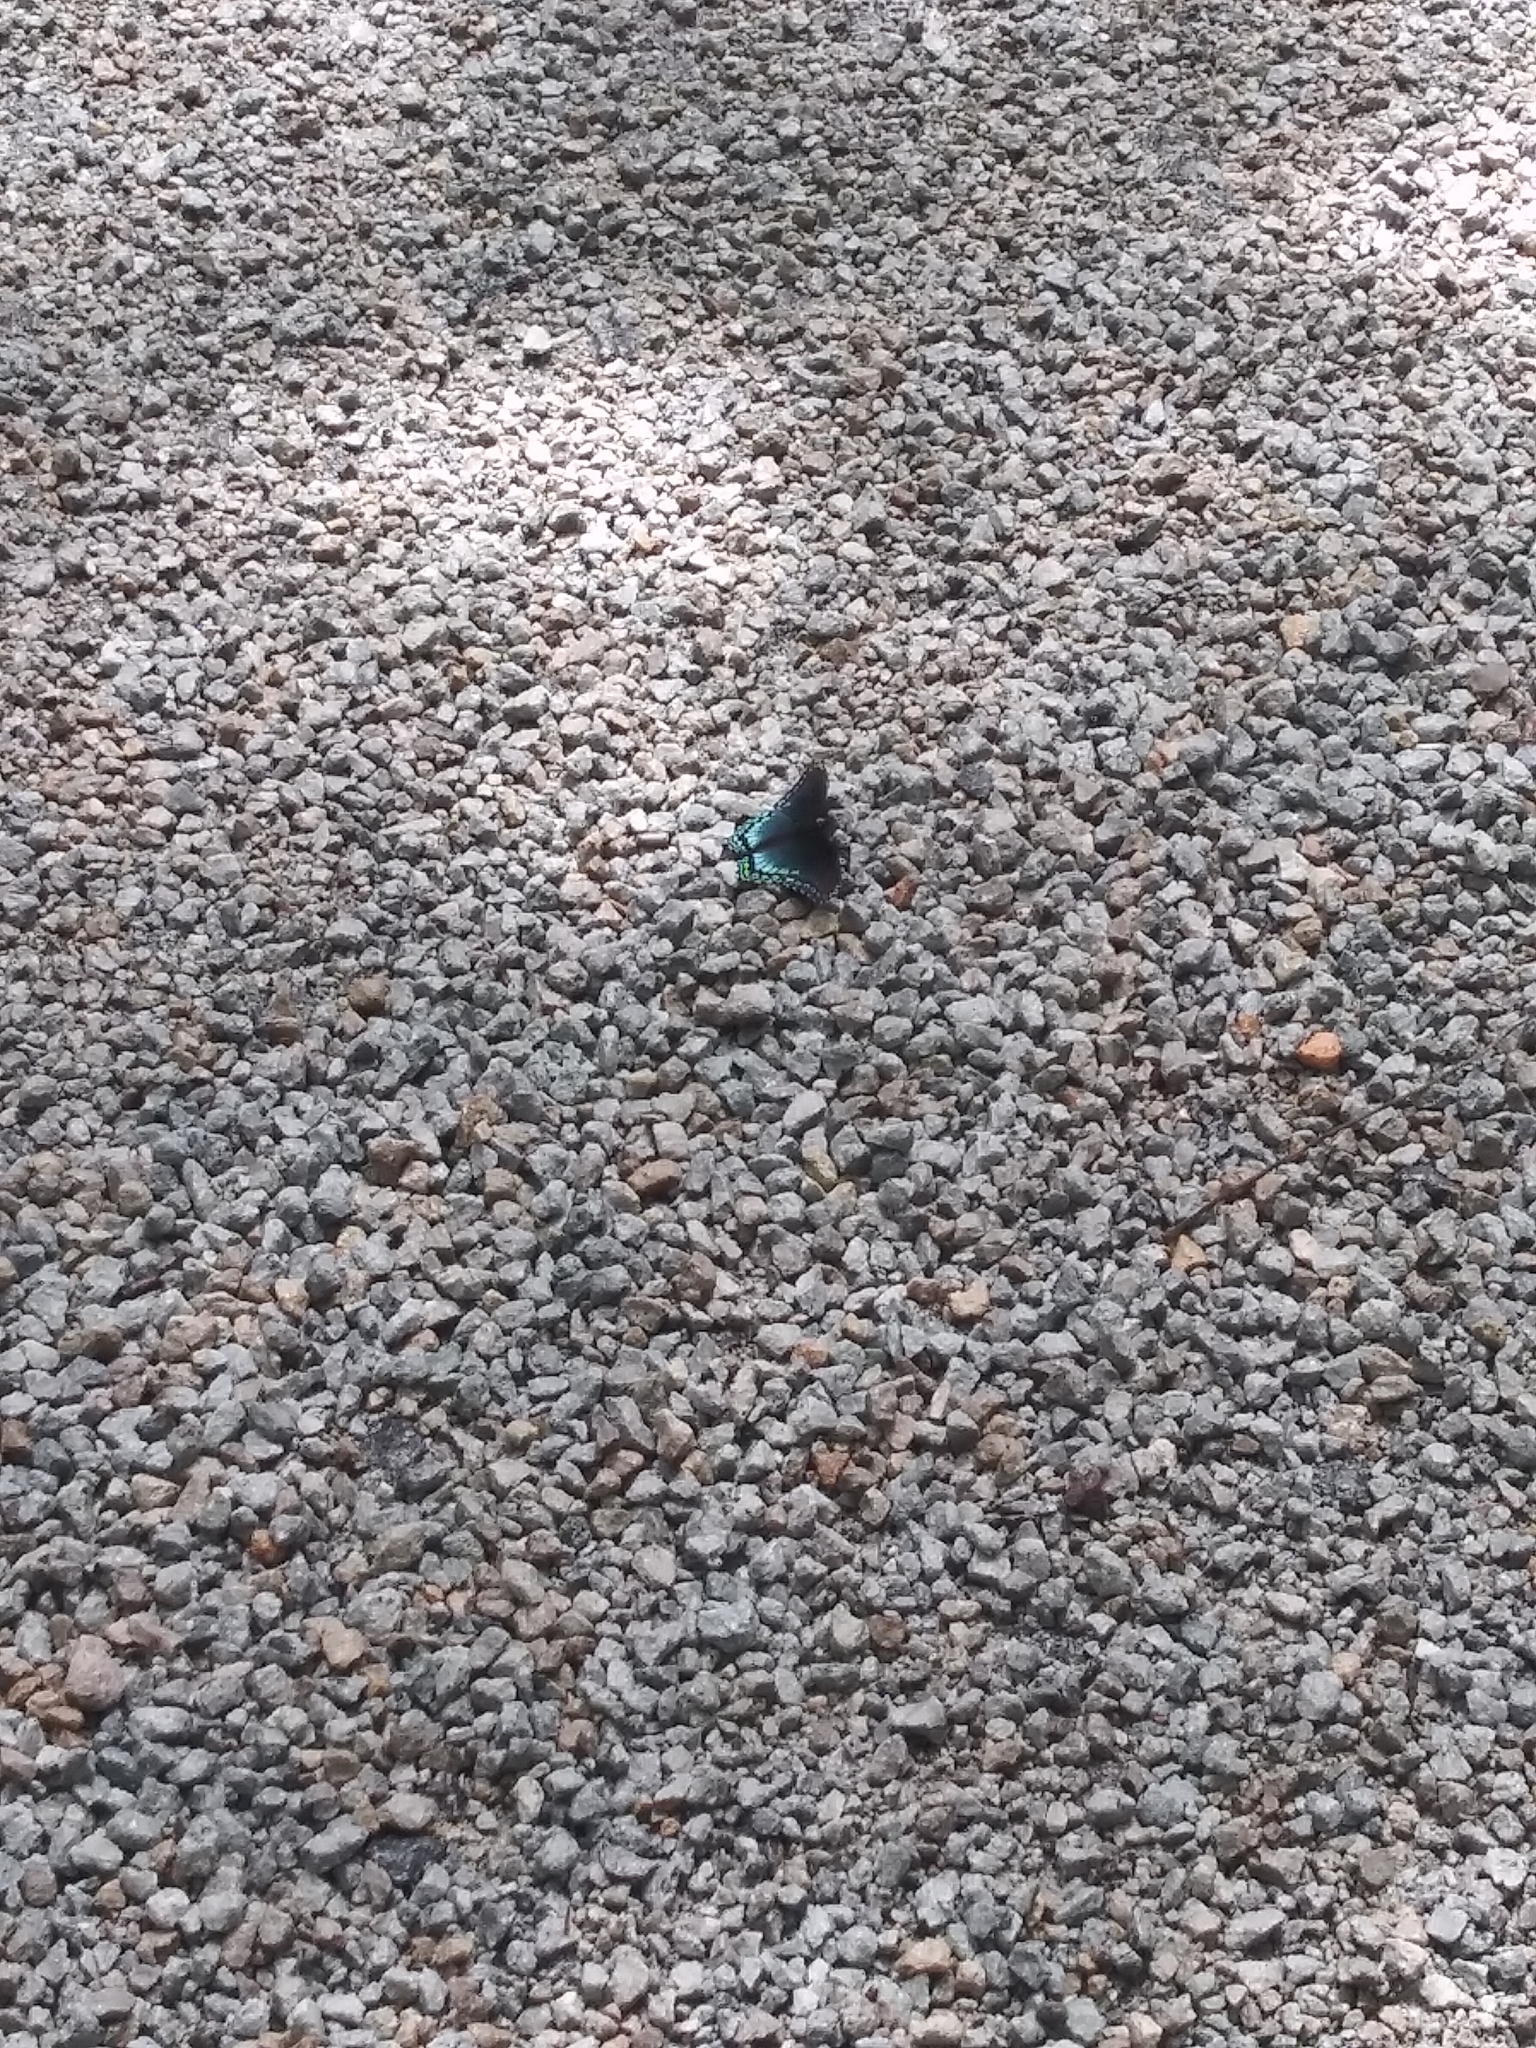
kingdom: Animalia
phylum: Arthropoda
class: Insecta
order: Lepidoptera
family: Nymphalidae
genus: Limenitis
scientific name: Limenitis astyanax
